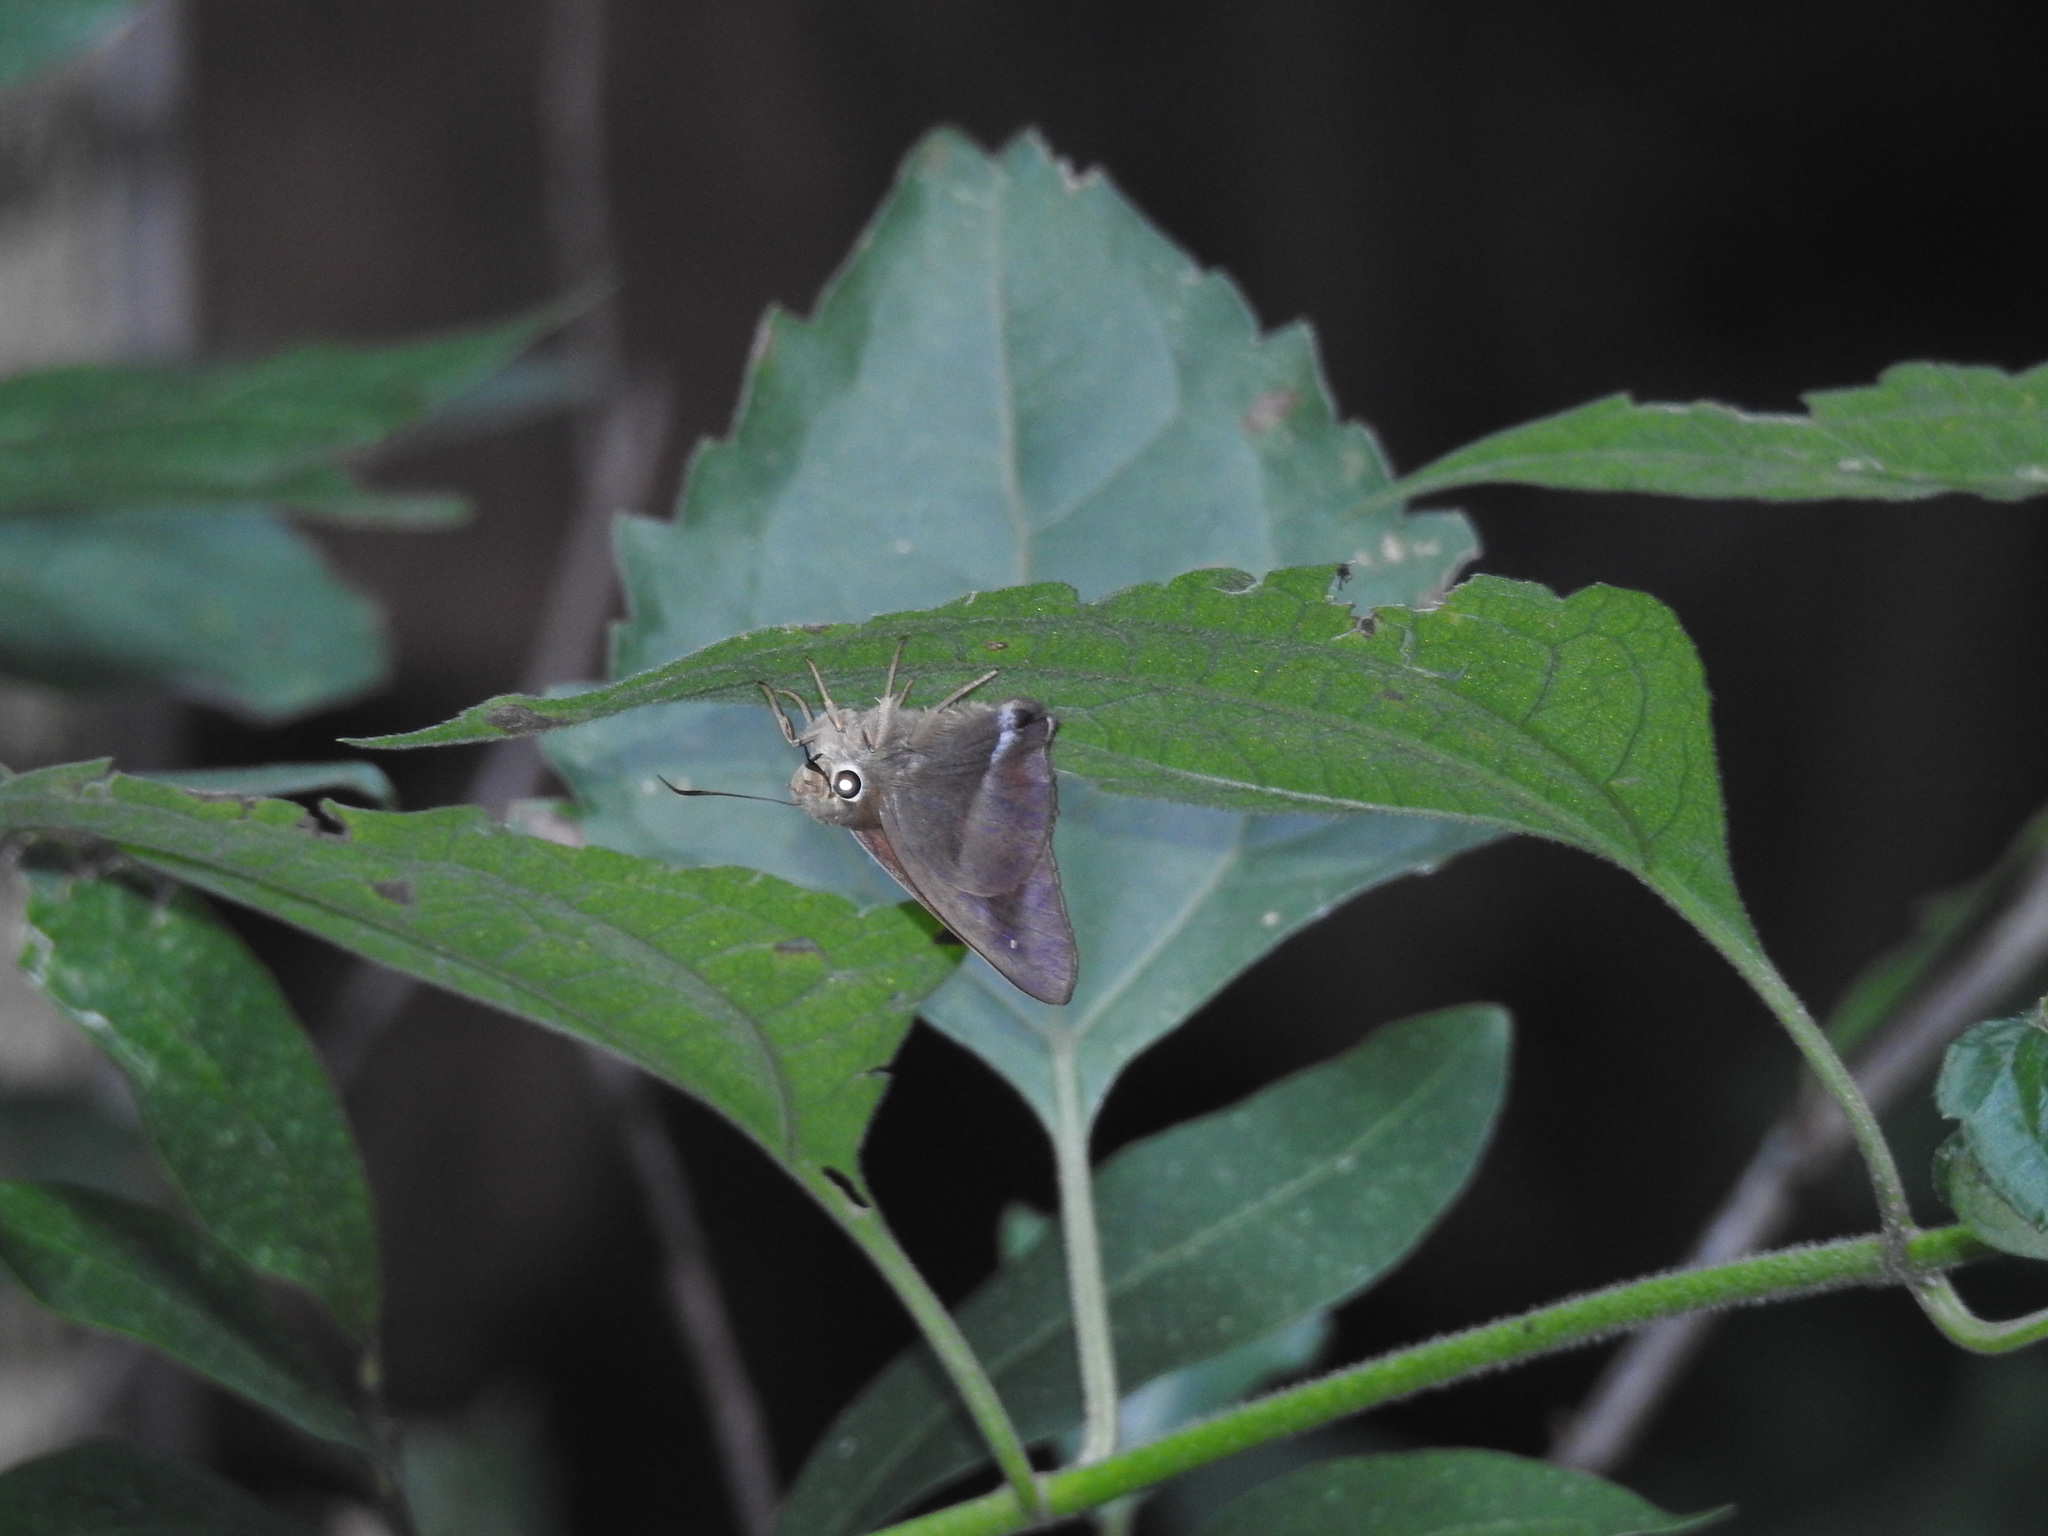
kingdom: Animalia
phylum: Arthropoda
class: Insecta
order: Lepidoptera
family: Hesperiidae
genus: Hasora
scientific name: Hasora chromus
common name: Common banded awl
